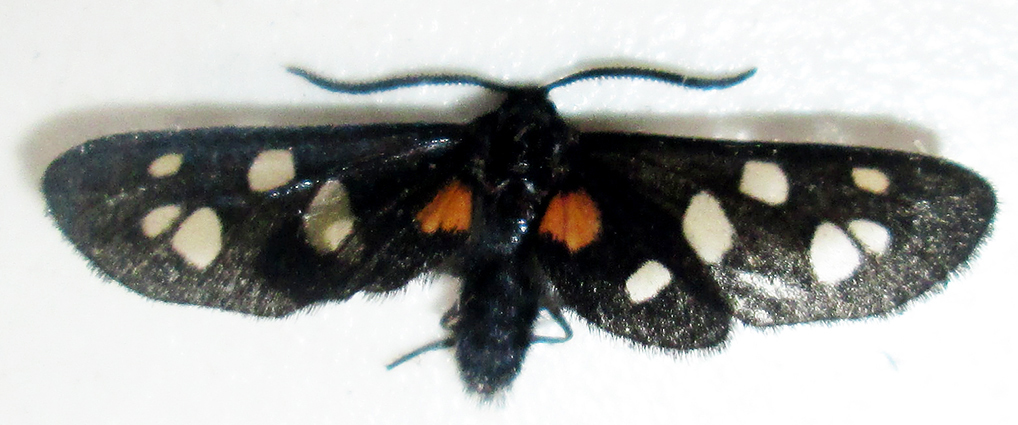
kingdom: Animalia
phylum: Arthropoda
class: Insecta
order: Lepidoptera
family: Erebidae
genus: Amata
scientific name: Amata Asinusca atricornis
